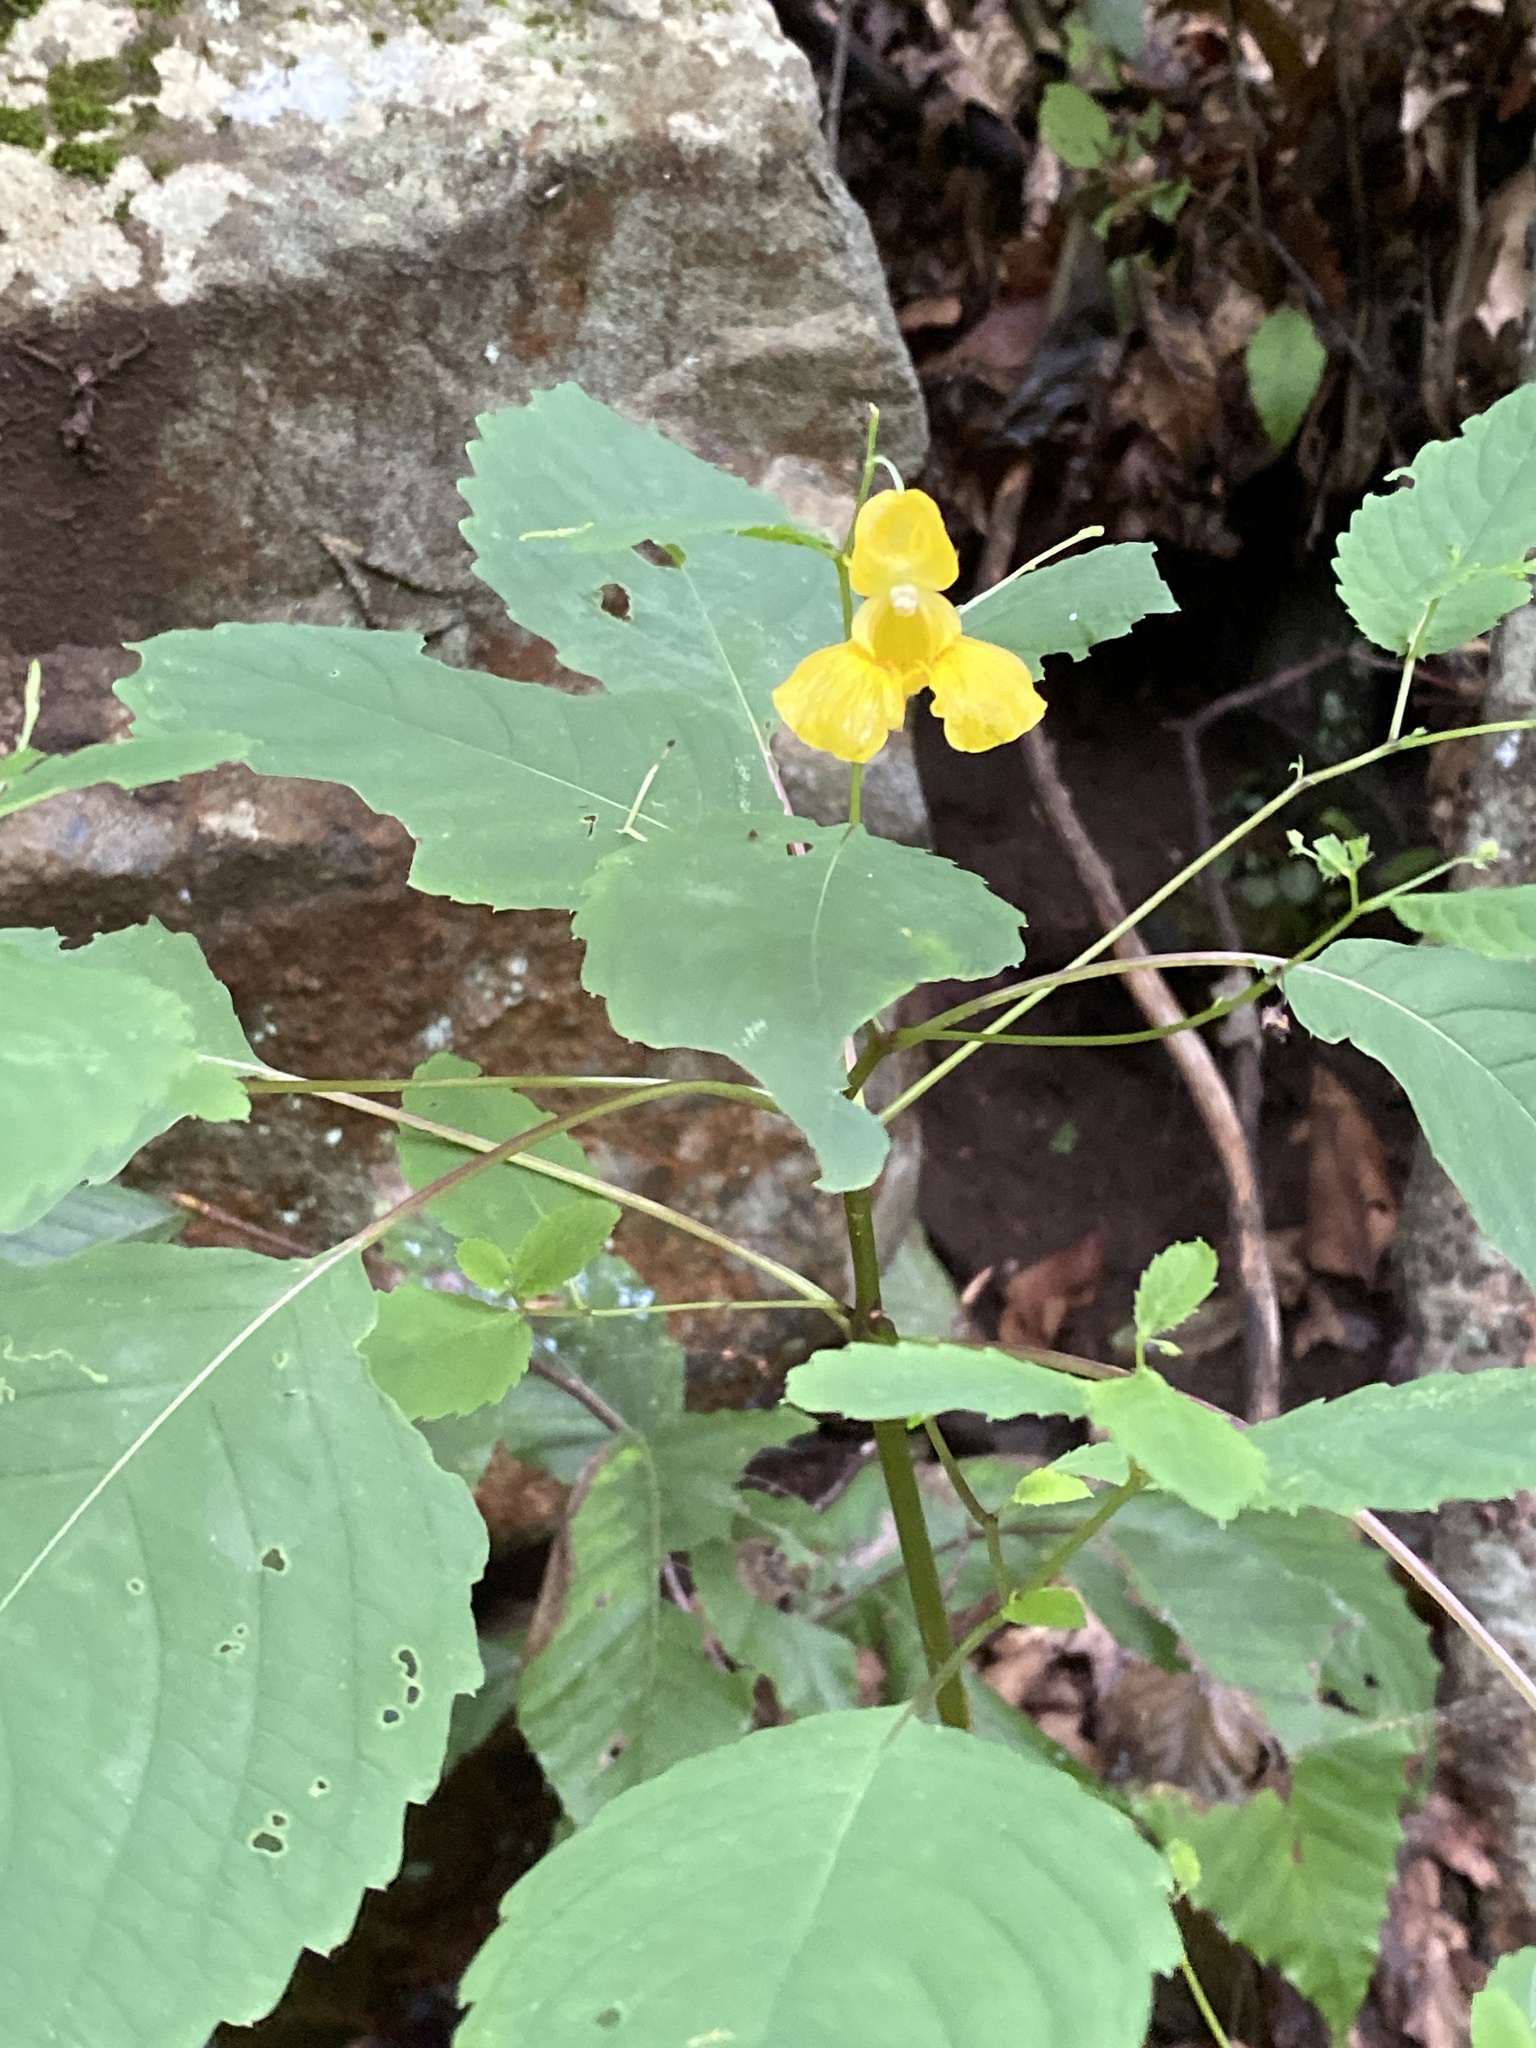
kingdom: Plantae
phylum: Tracheophyta
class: Magnoliopsida
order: Ericales
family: Balsaminaceae
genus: Impatiens
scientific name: Impatiens pallida
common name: Pale snapweed
